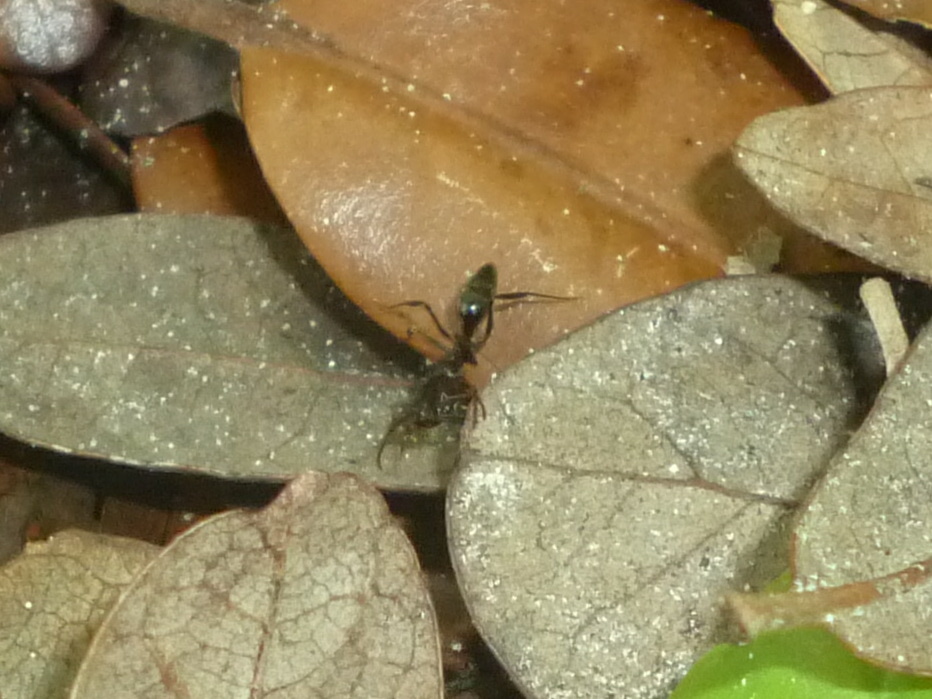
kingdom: Animalia
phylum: Arthropoda
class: Insecta
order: Hymenoptera
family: Formicidae
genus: Odontomachus
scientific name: Odontomachus brunneus
